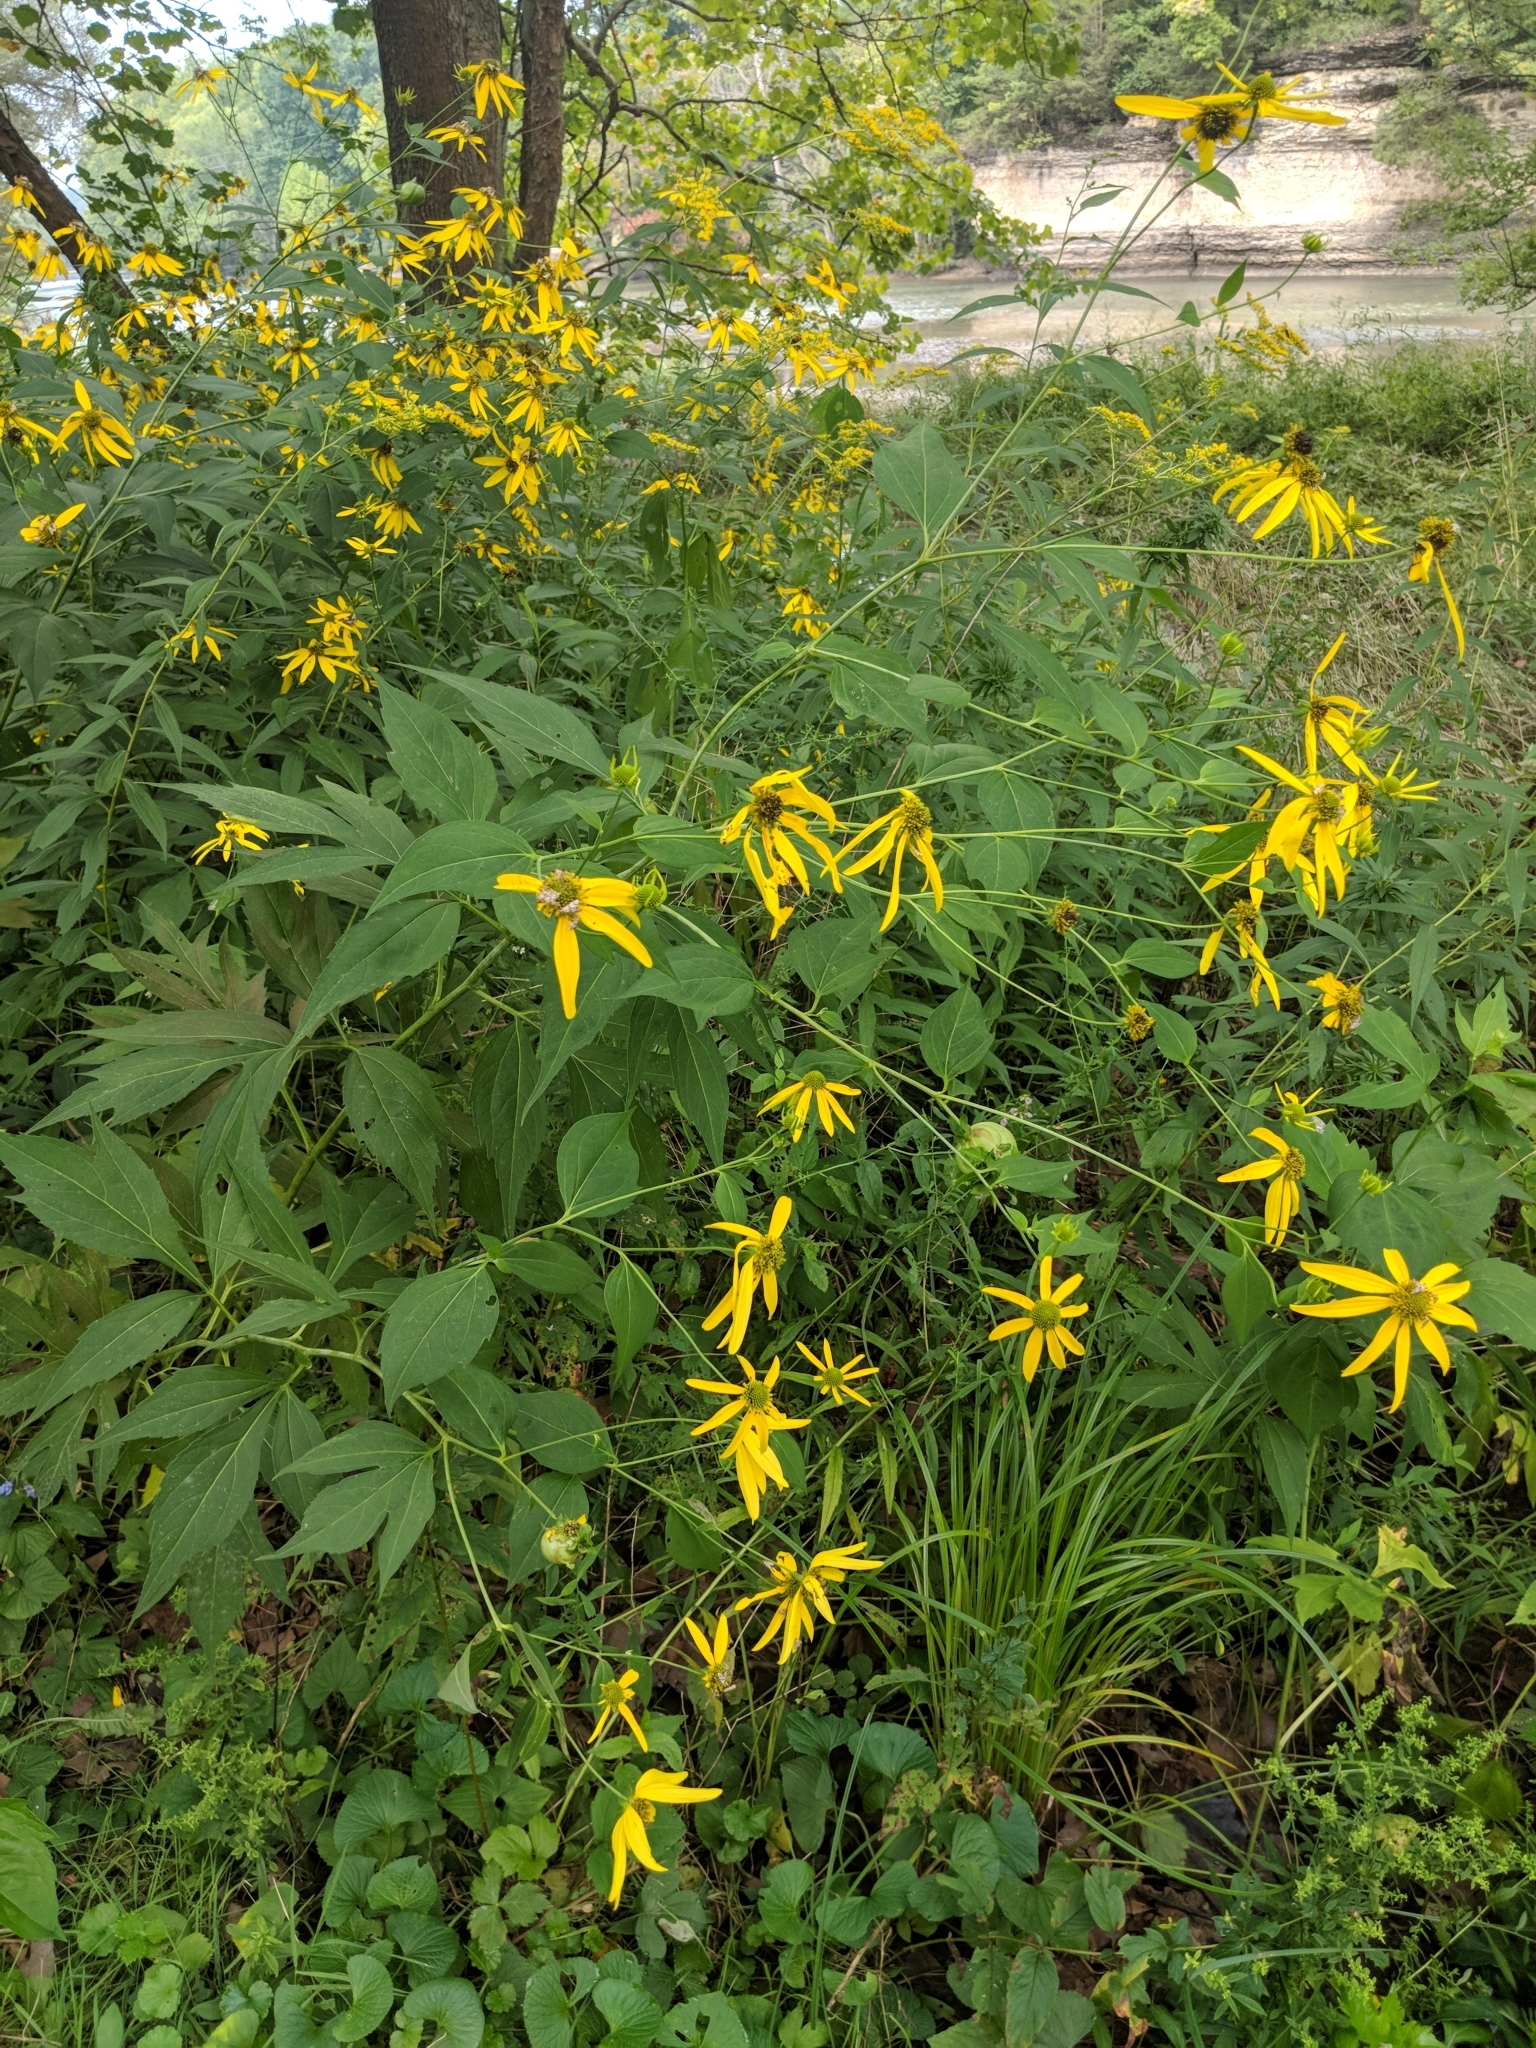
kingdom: Plantae
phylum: Tracheophyta
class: Magnoliopsida
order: Asterales
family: Asteraceae
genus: Rudbeckia
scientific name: Rudbeckia laciniata
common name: Coneflower
